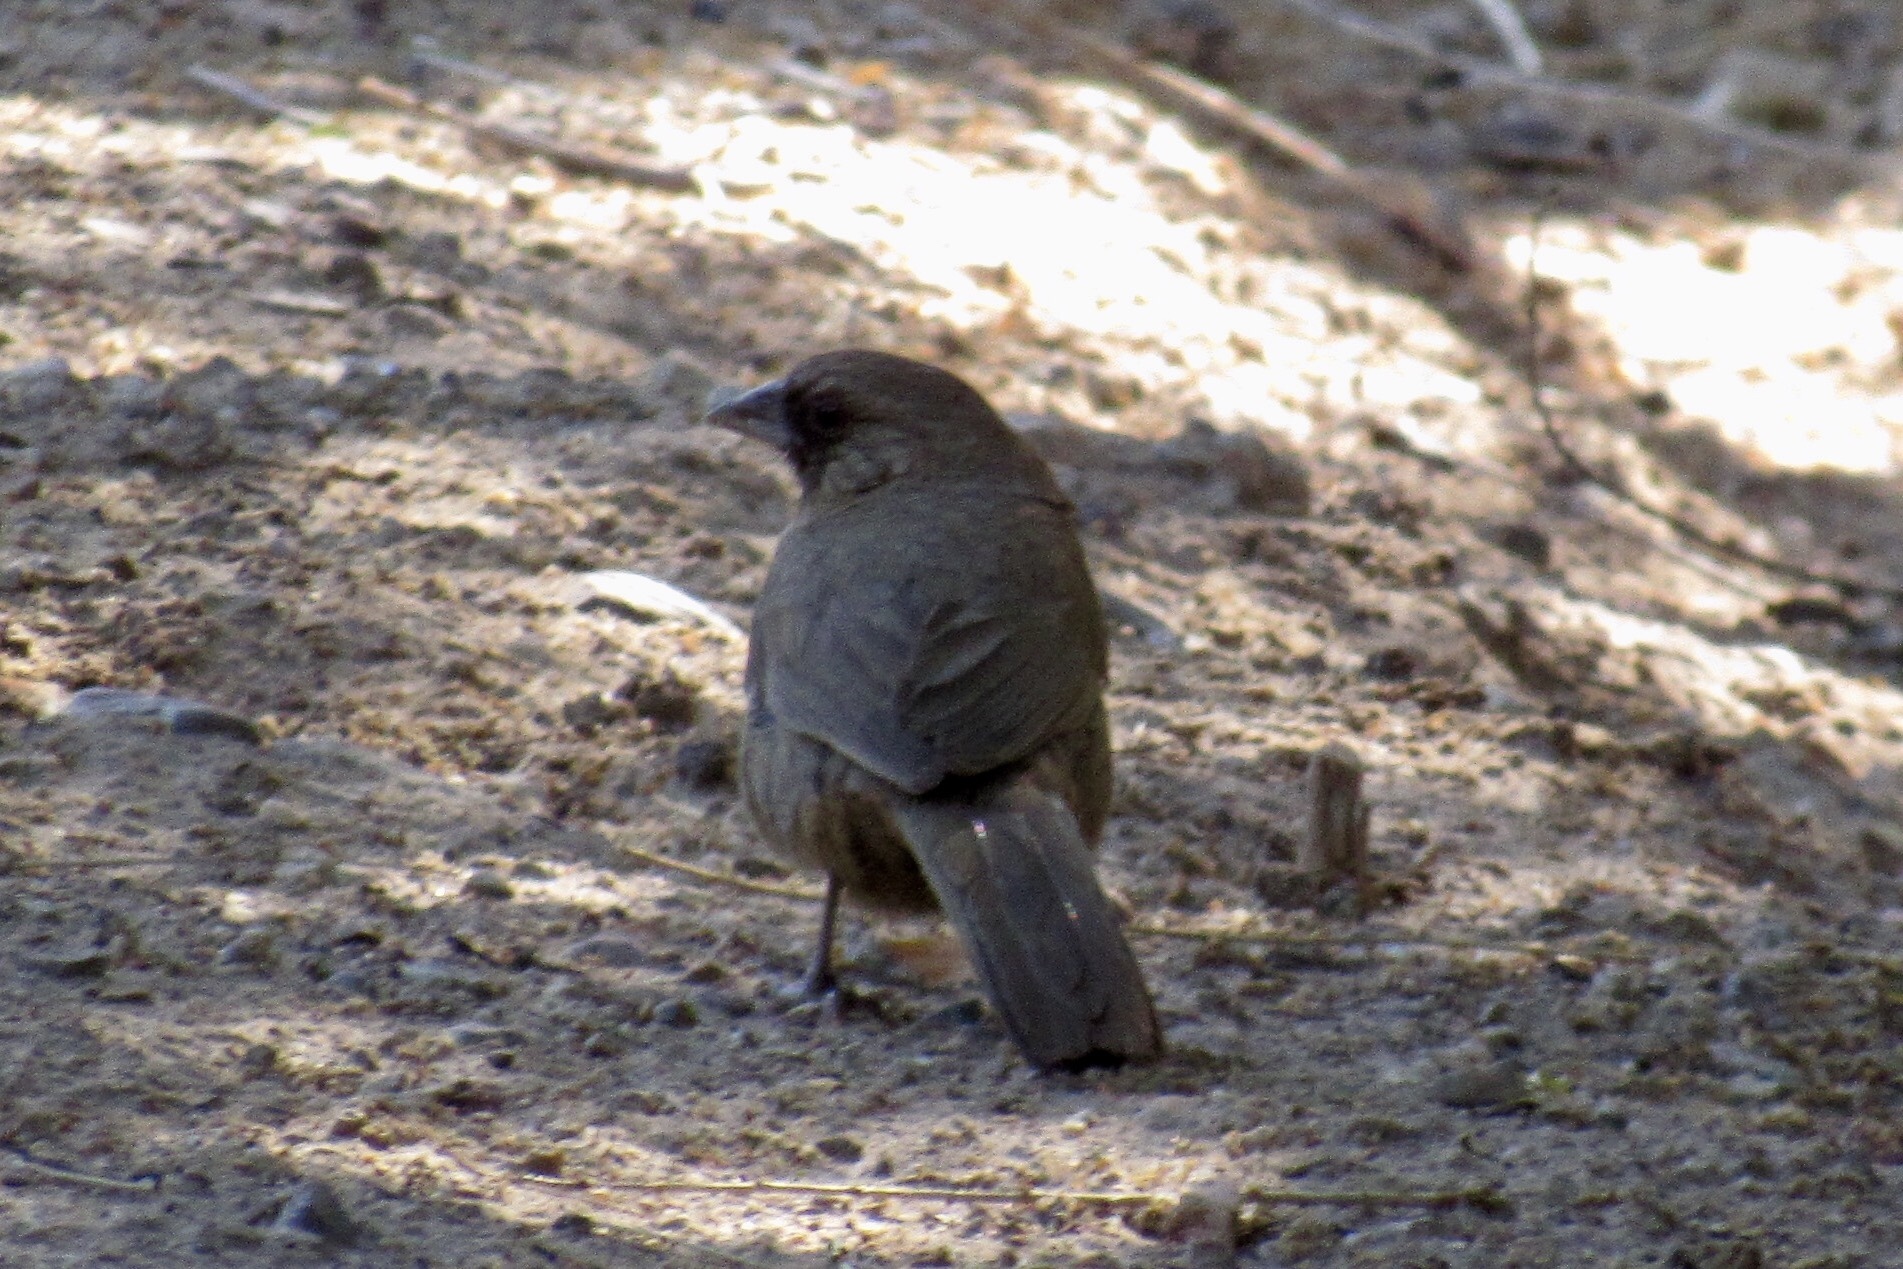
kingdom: Animalia
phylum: Chordata
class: Aves
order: Passeriformes
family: Passerellidae
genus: Melozone
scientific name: Melozone aberti
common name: Abert's towhee
